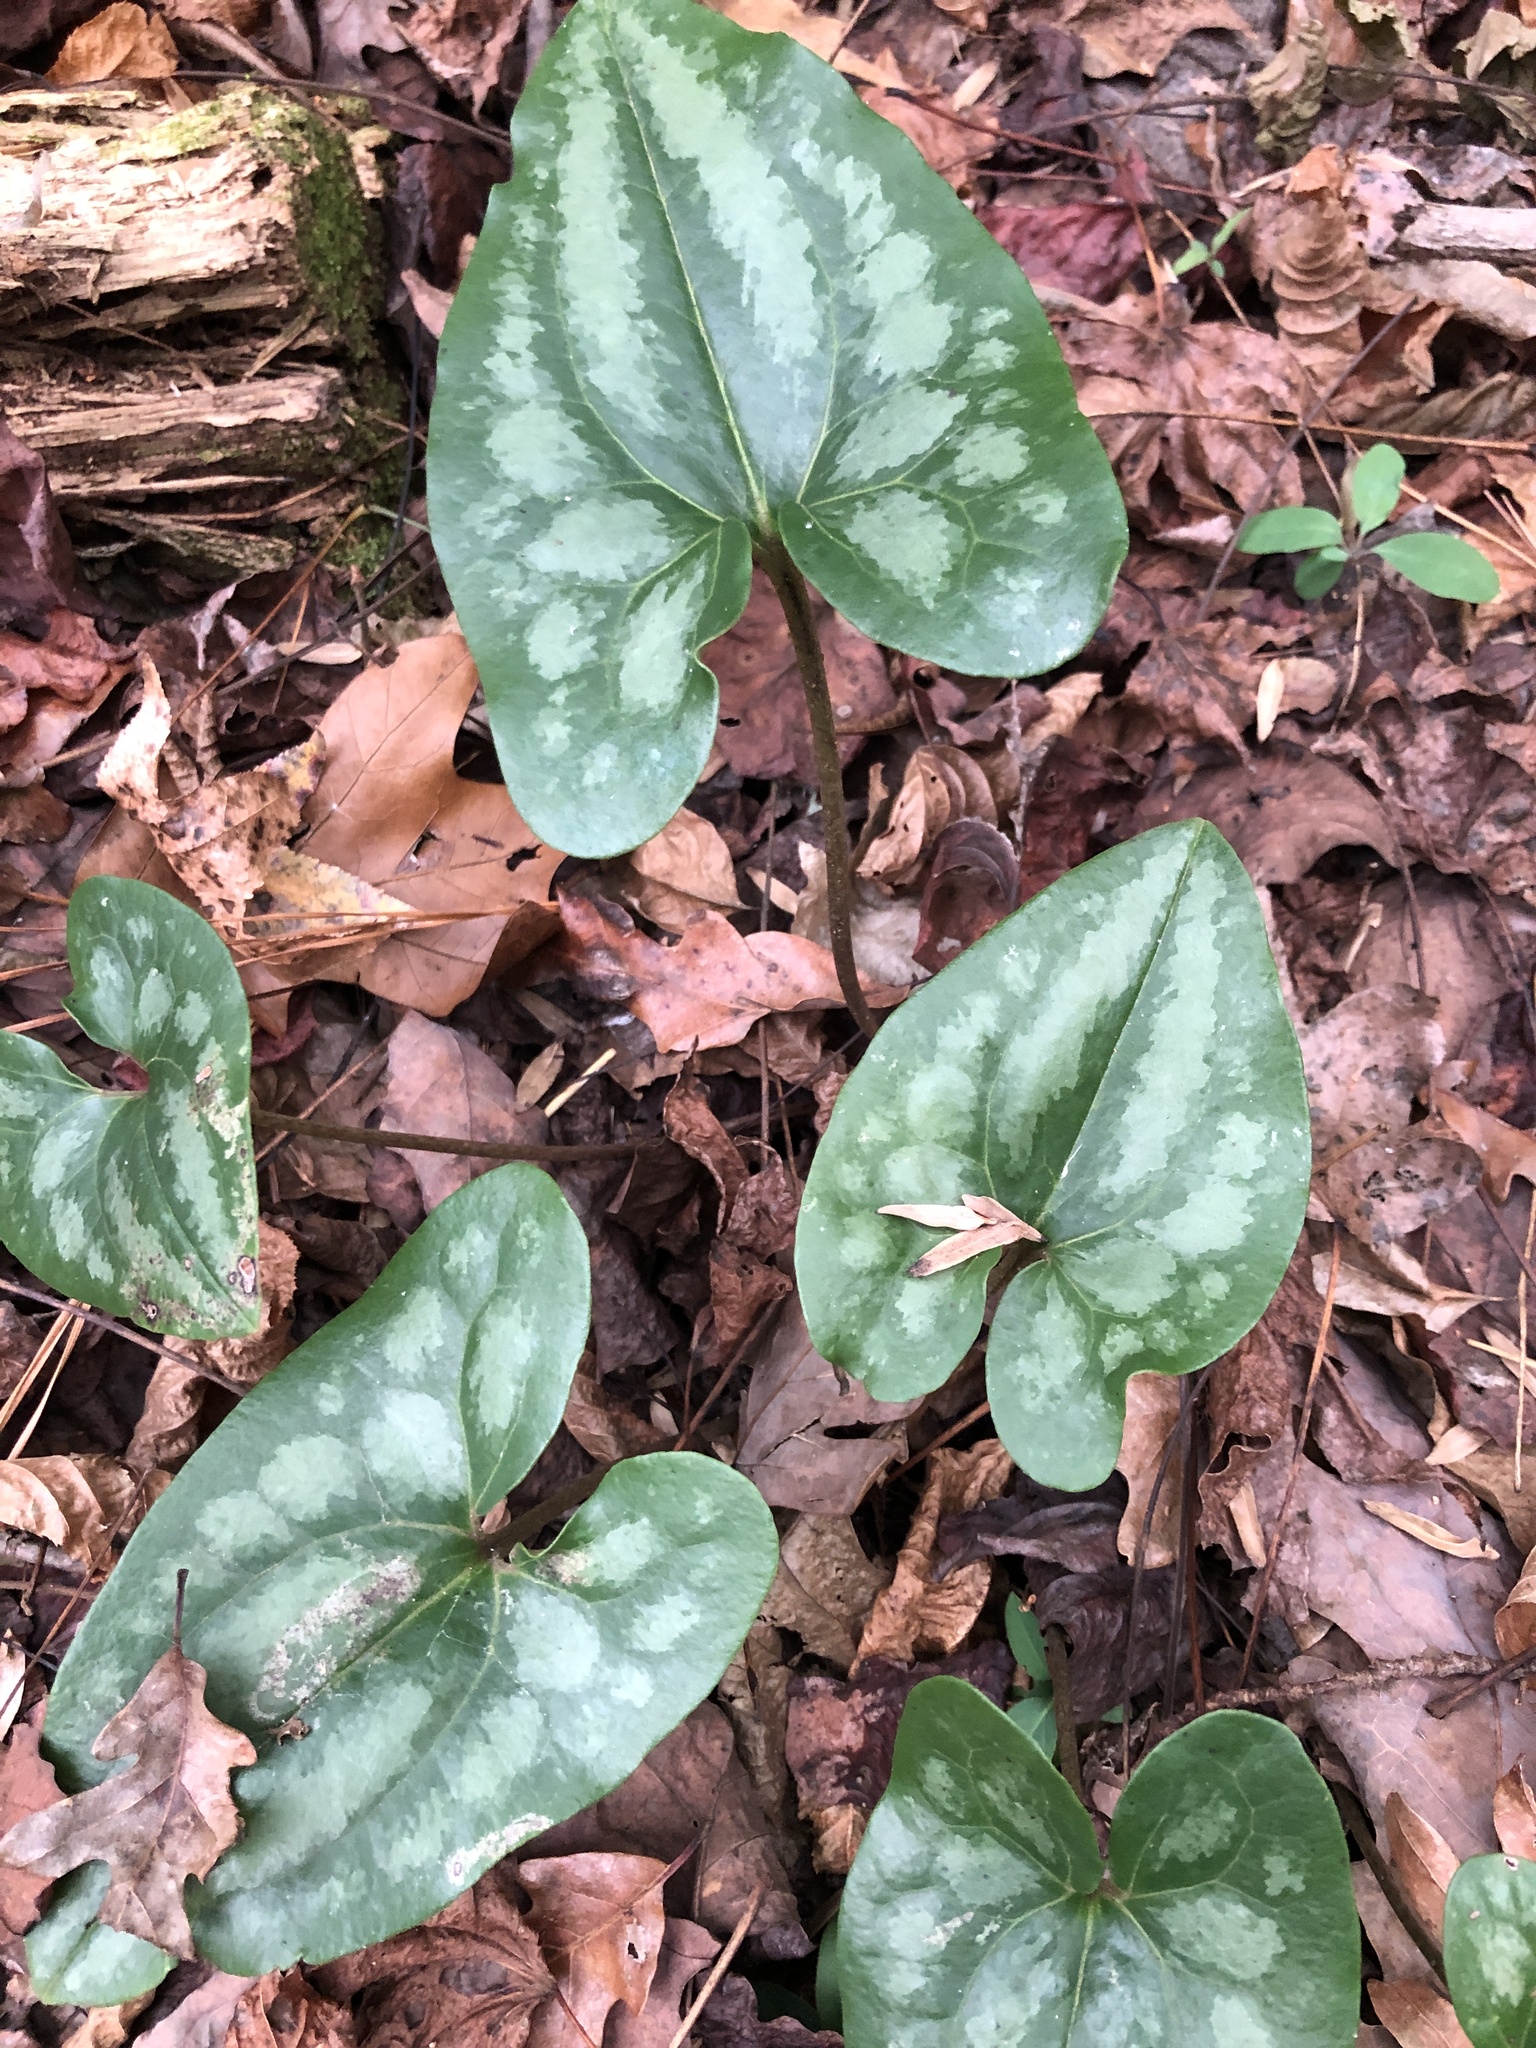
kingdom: Plantae
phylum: Tracheophyta
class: Magnoliopsida
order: Piperales
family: Aristolochiaceae
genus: Hexastylis
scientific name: Hexastylis arifolia
